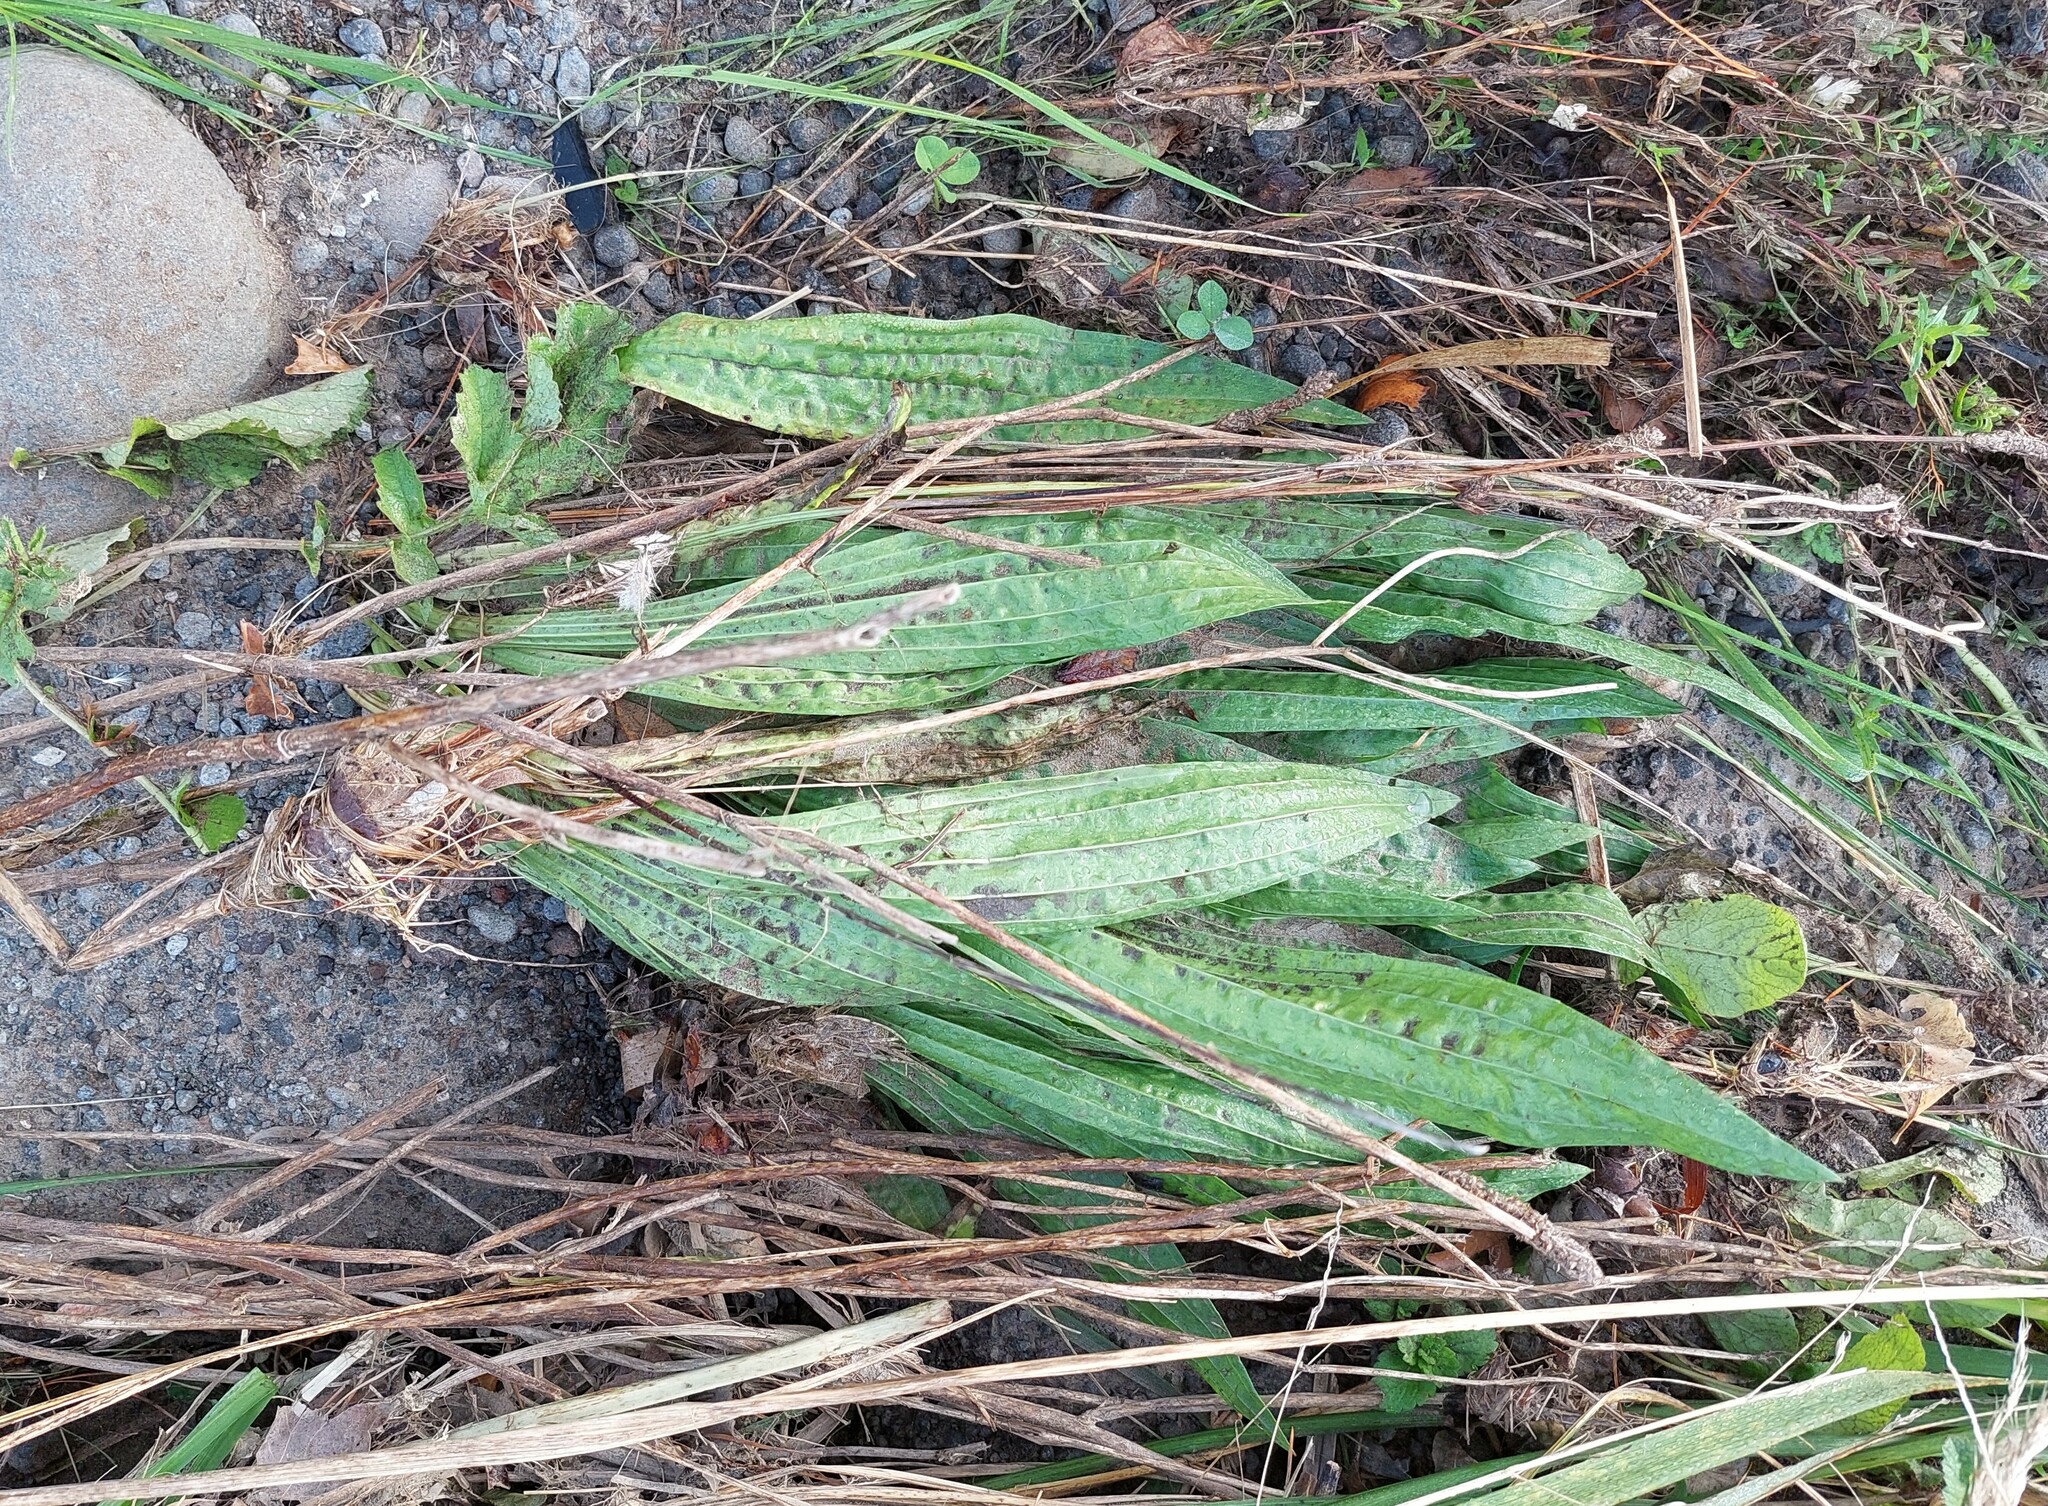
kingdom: Plantae
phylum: Tracheophyta
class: Magnoliopsida
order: Lamiales
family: Plantaginaceae
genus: Plantago
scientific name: Plantago lanceolata
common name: Ribwort plantain
